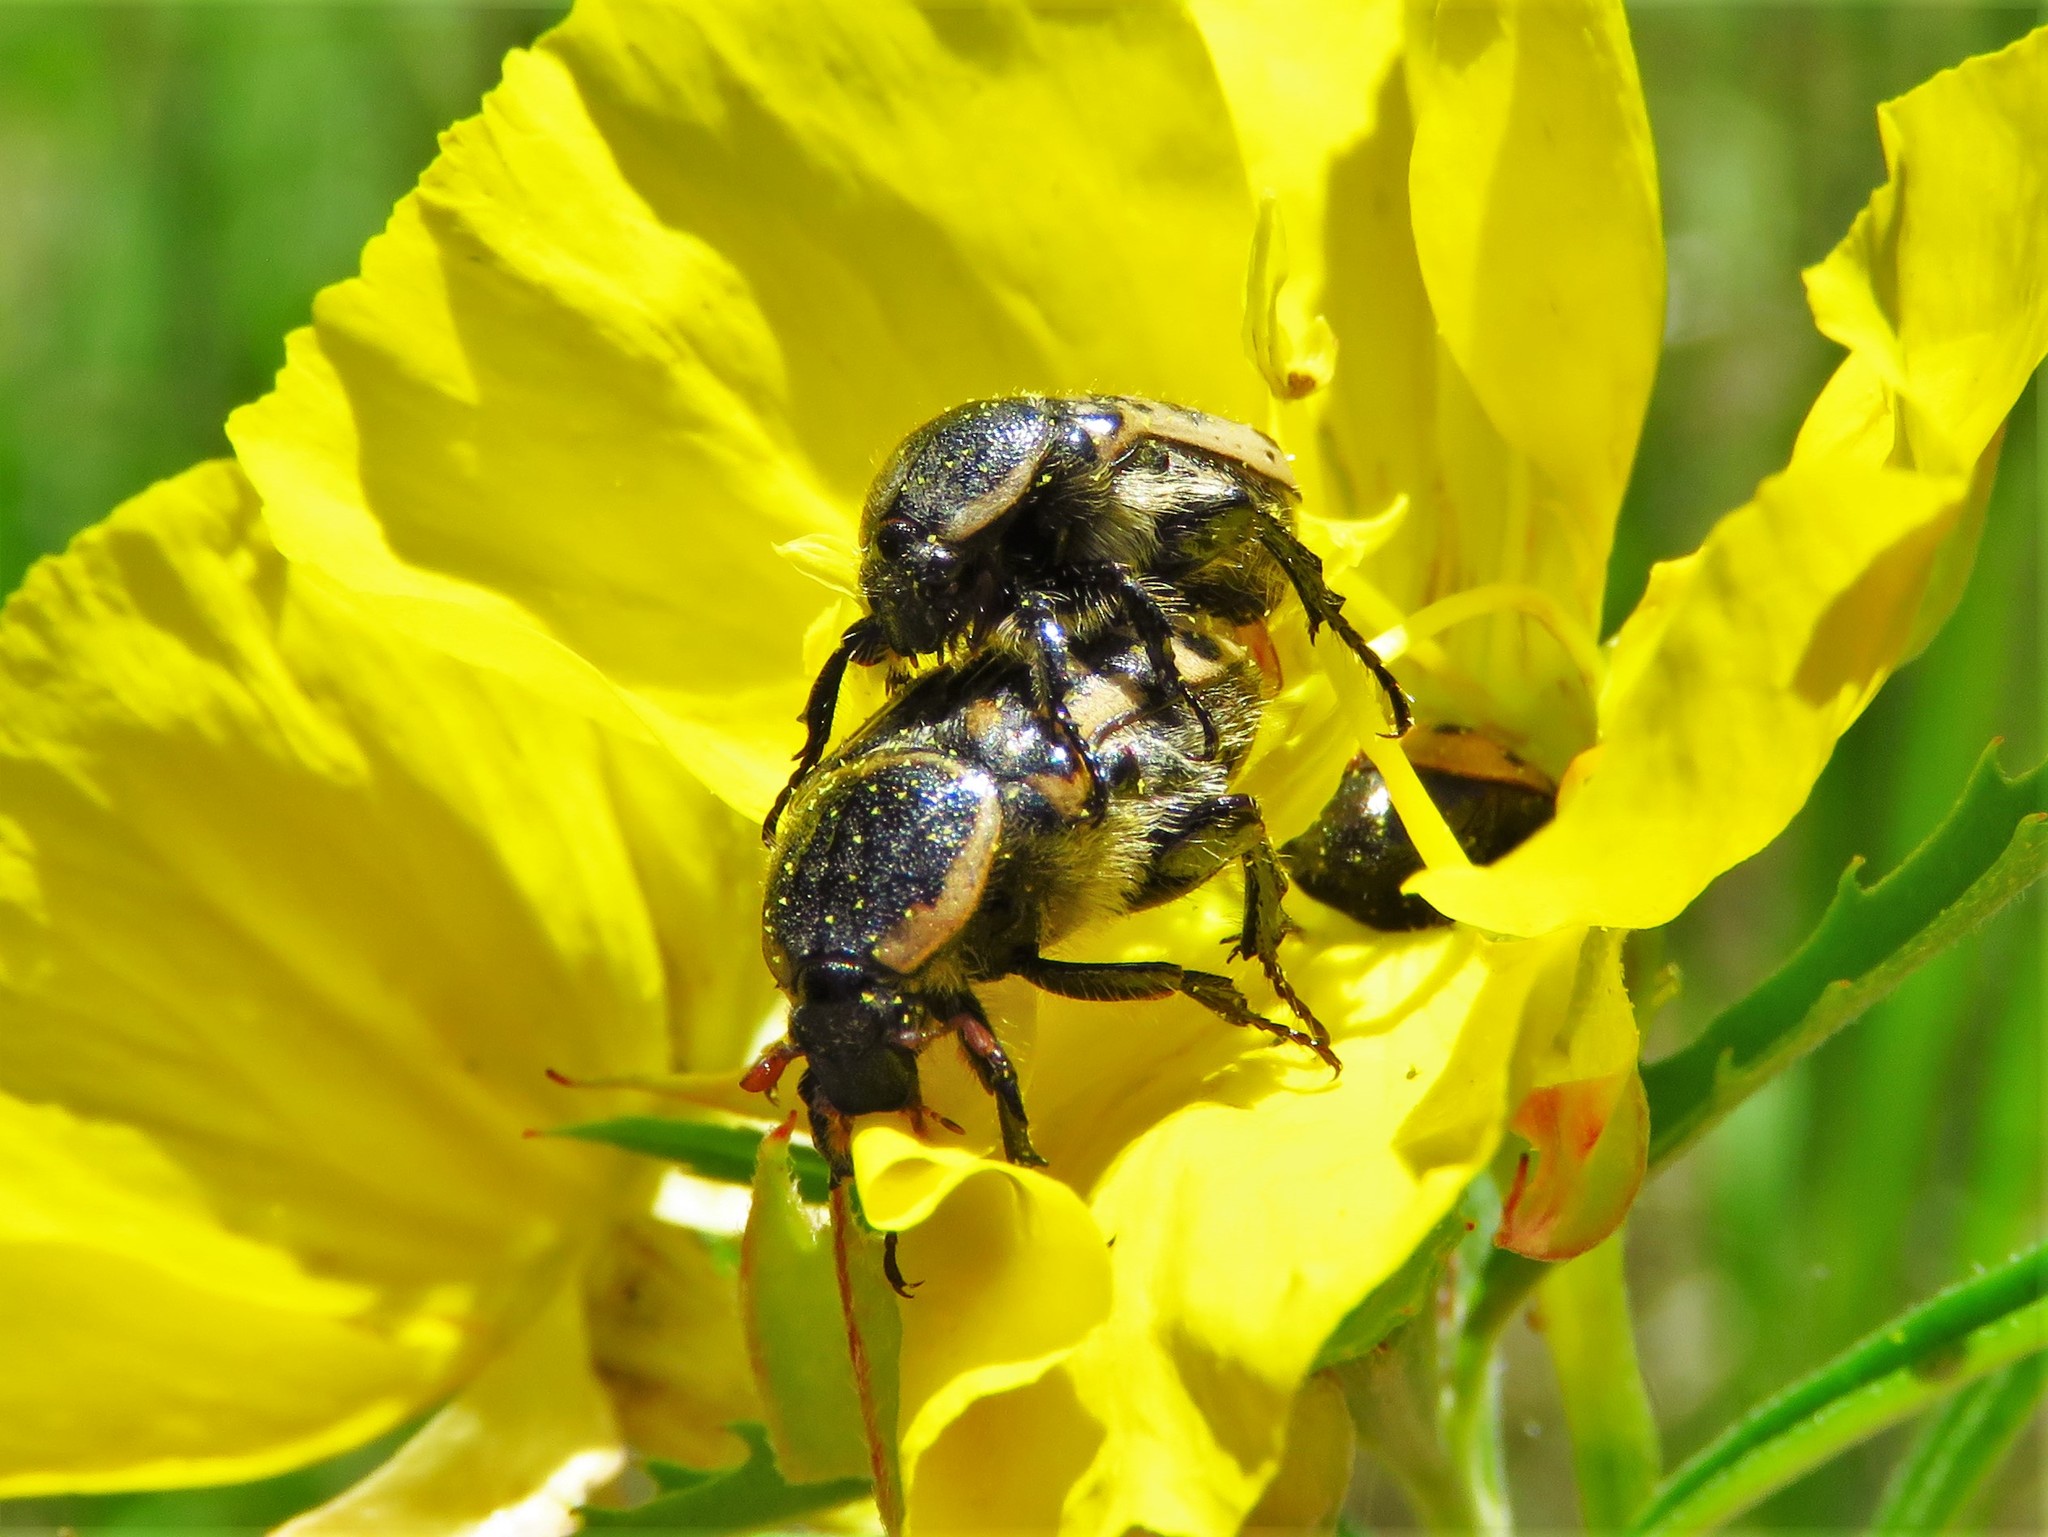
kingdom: Animalia
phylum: Arthropoda
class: Insecta
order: Coleoptera
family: Scarabaeidae
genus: Euphoria
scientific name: Euphoria kernii
